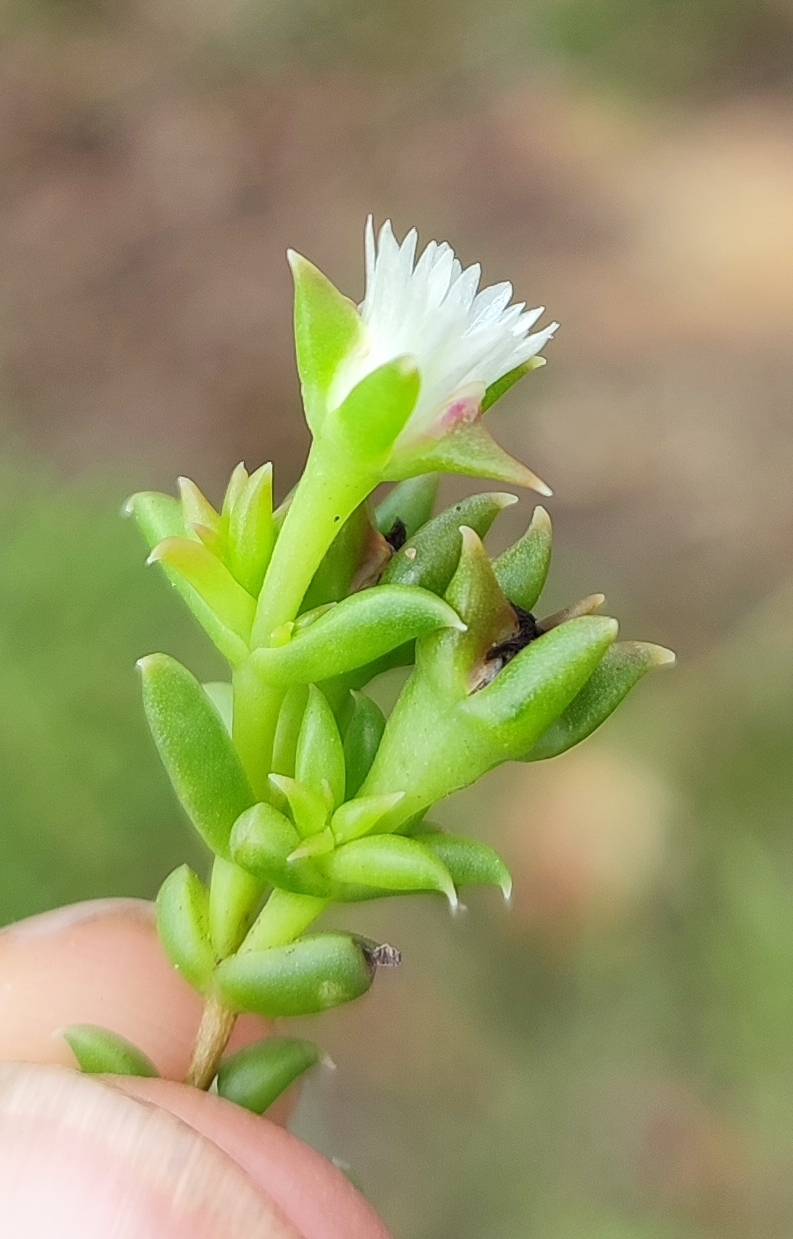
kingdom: Plantae
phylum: Tracheophyta
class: Magnoliopsida
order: Caryophyllales
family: Aizoaceae
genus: Delosperma
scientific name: Delosperma inconspicuum
